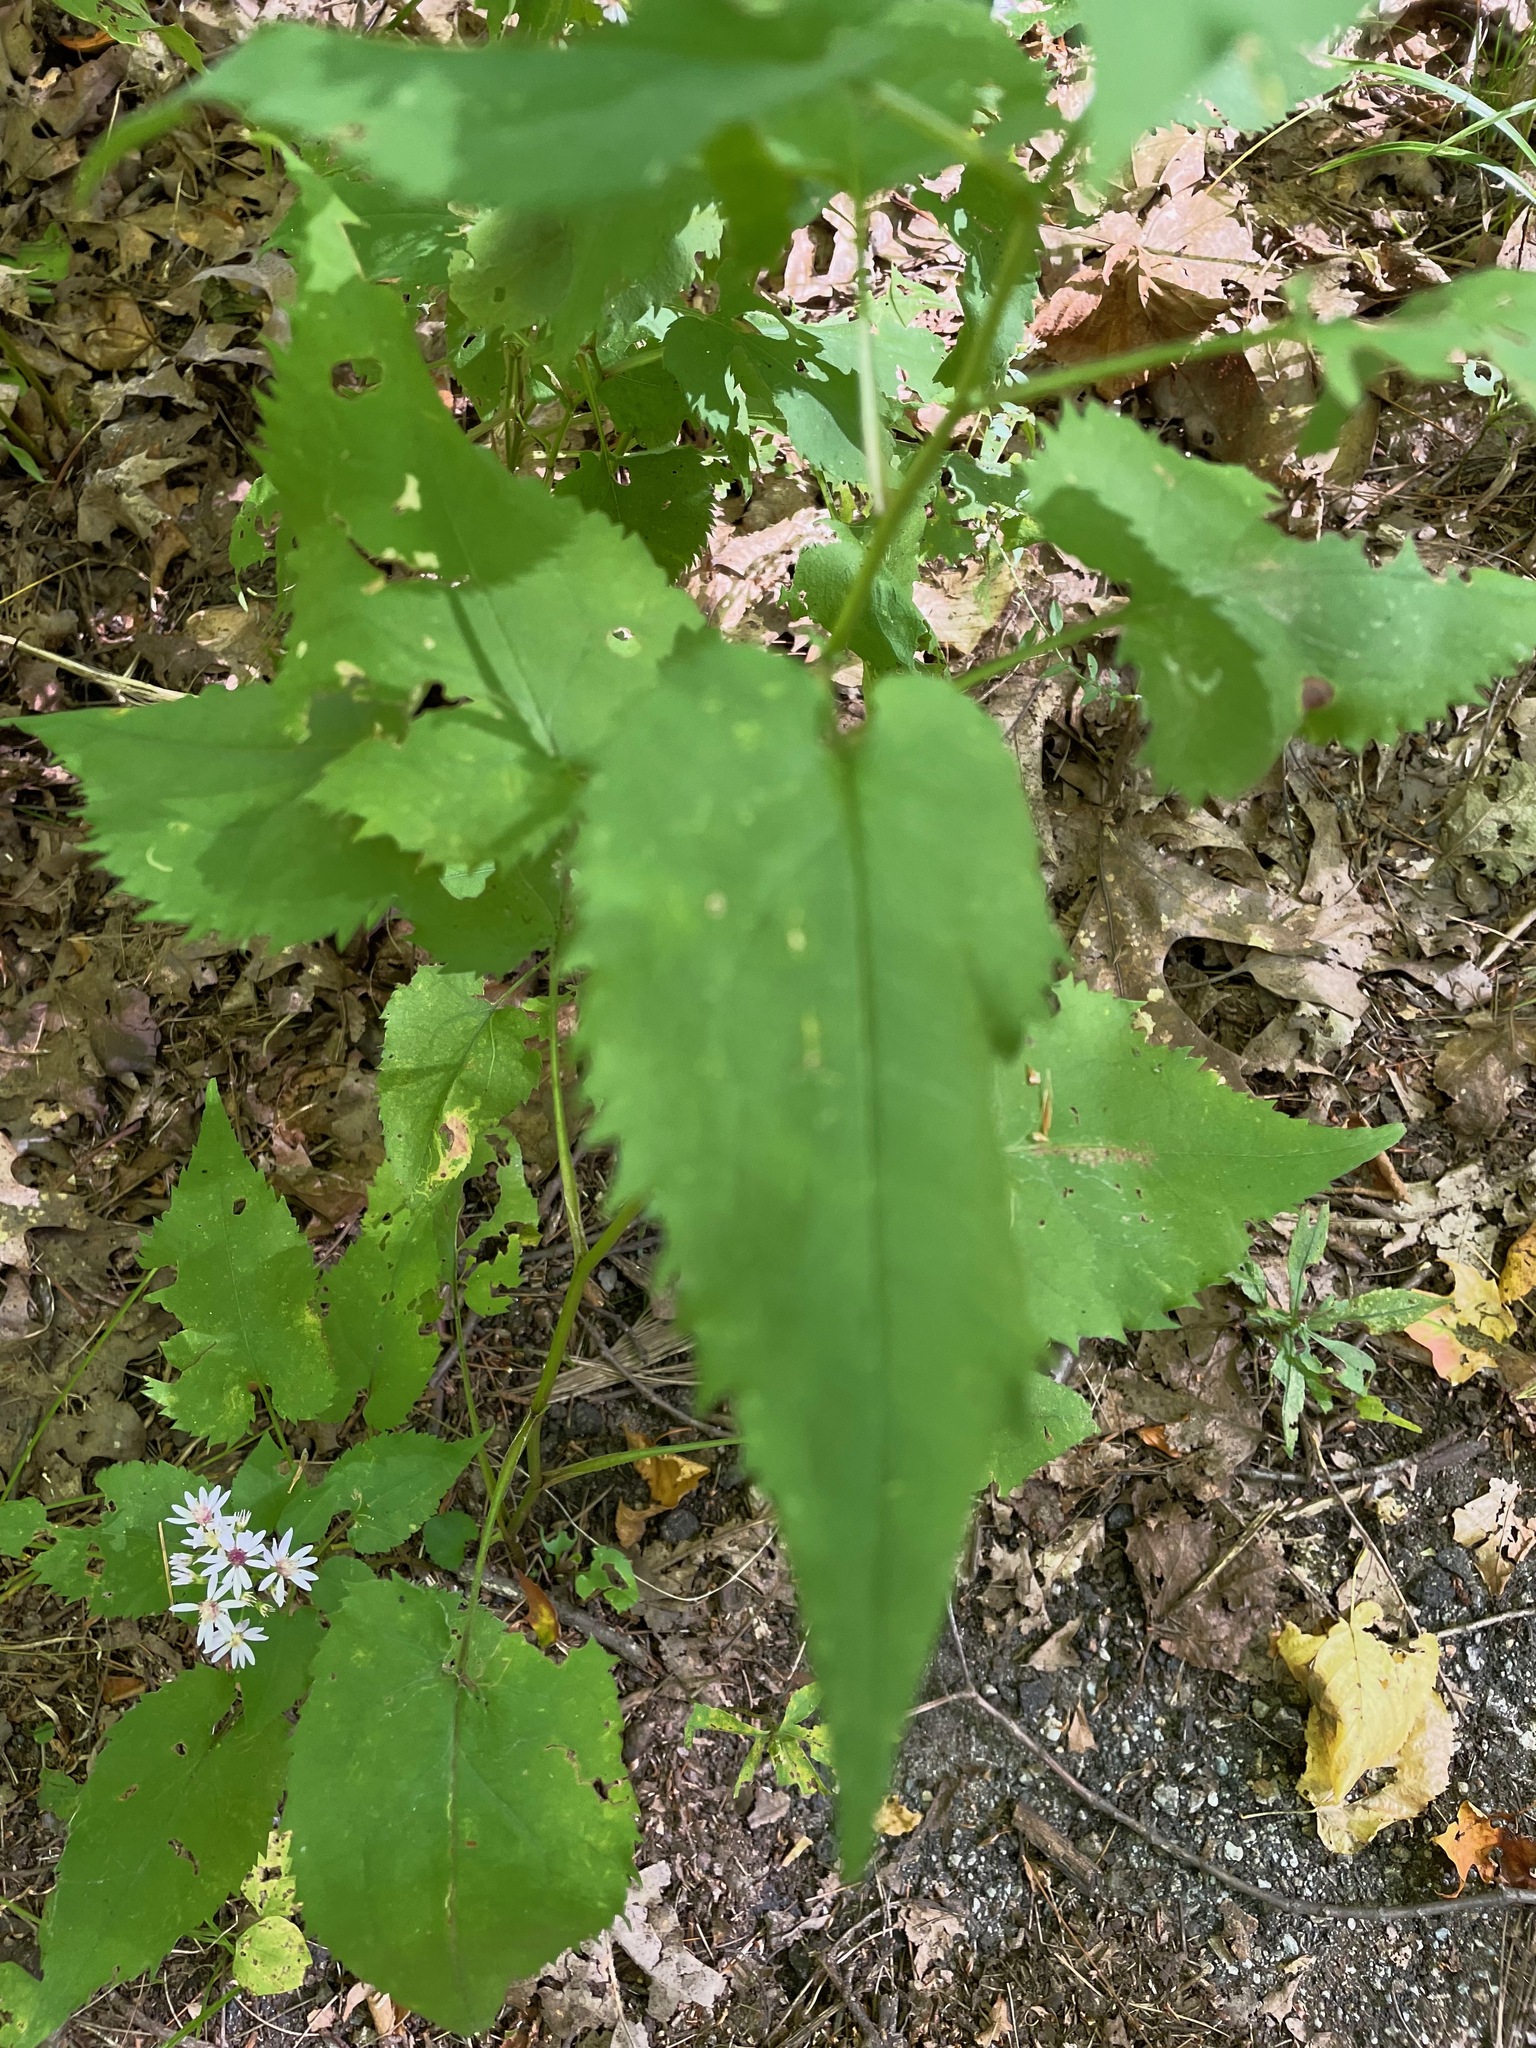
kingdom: Plantae
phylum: Tracheophyta
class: Magnoliopsida
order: Asterales
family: Asteraceae
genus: Symphyotrichum
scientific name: Symphyotrichum cordifolium
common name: Beeweed
